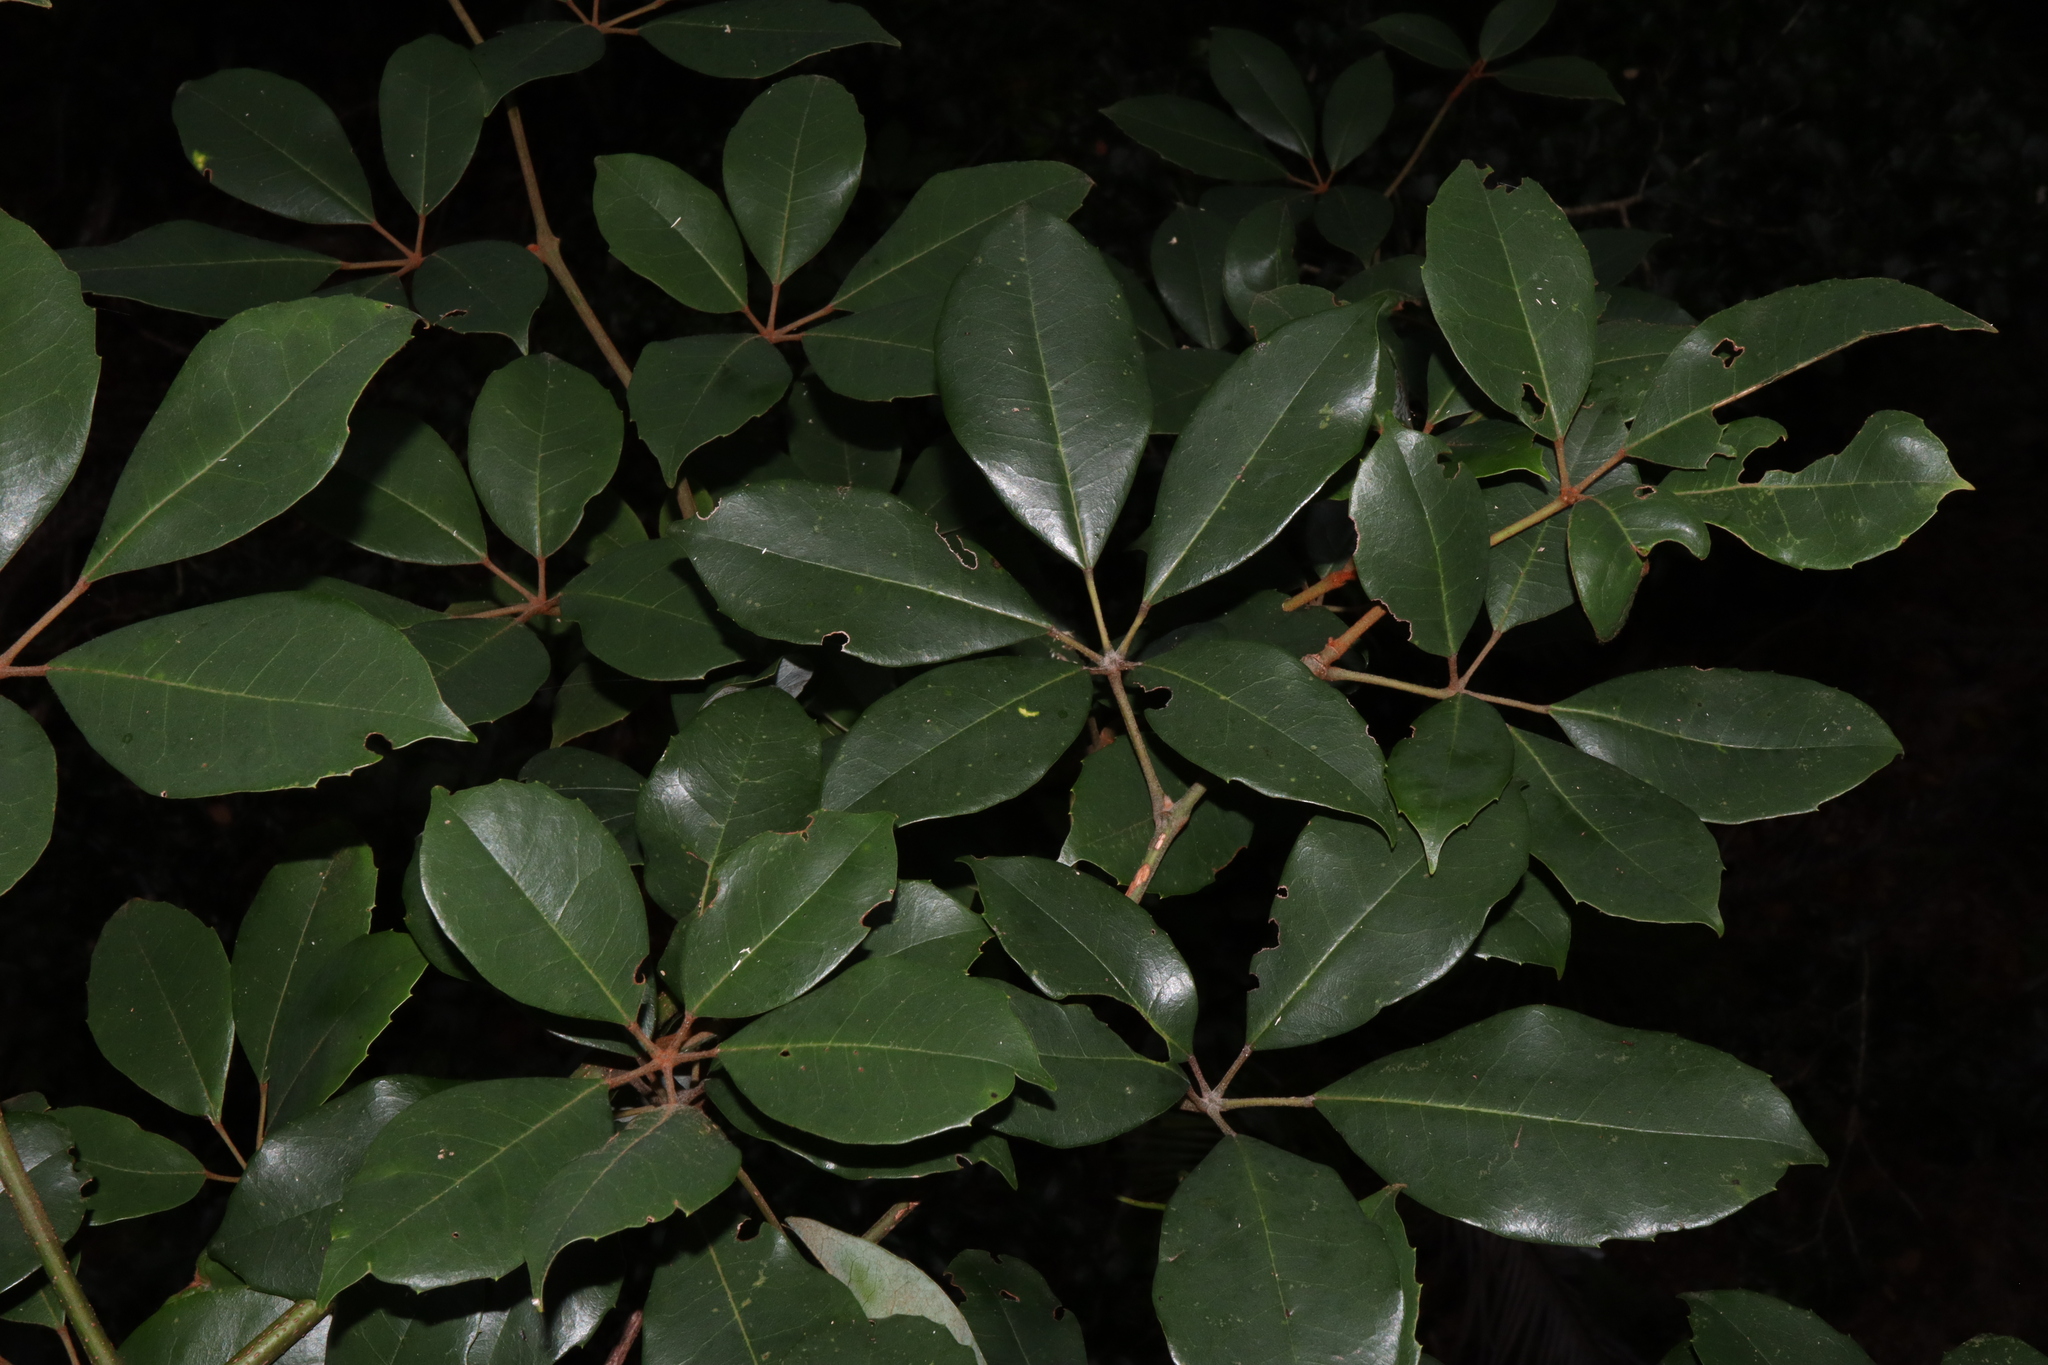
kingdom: Plantae
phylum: Tracheophyta
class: Magnoliopsida
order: Vitales
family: Vitaceae
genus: Nothocissus
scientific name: Nothocissus hypoglauca
